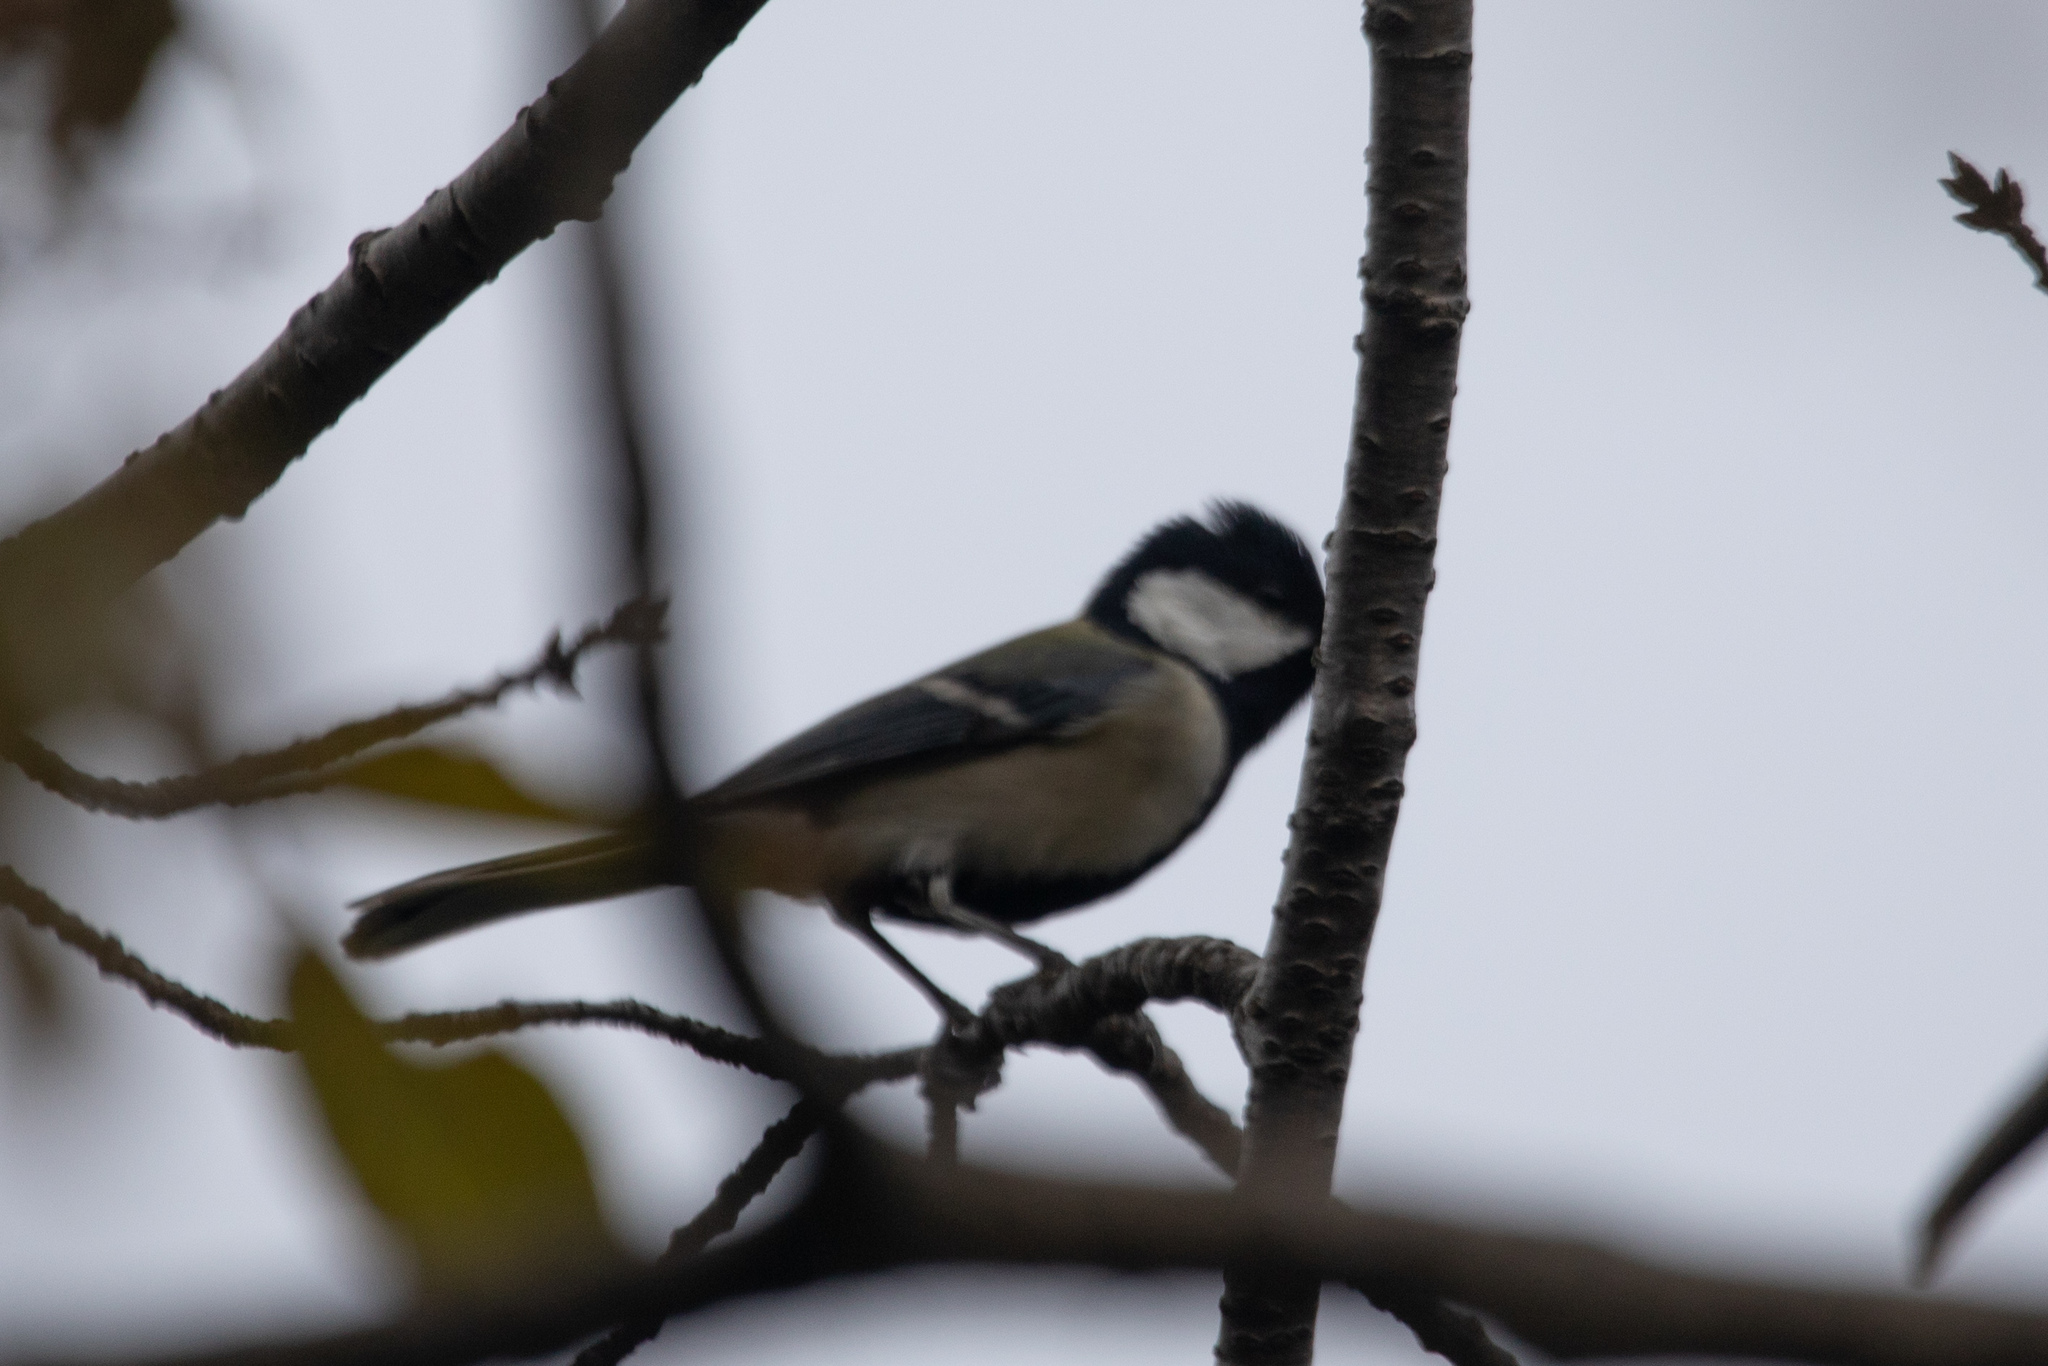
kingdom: Animalia
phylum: Chordata
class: Aves
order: Passeriformes
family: Paridae
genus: Parus
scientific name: Parus minor
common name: Japanese tit
